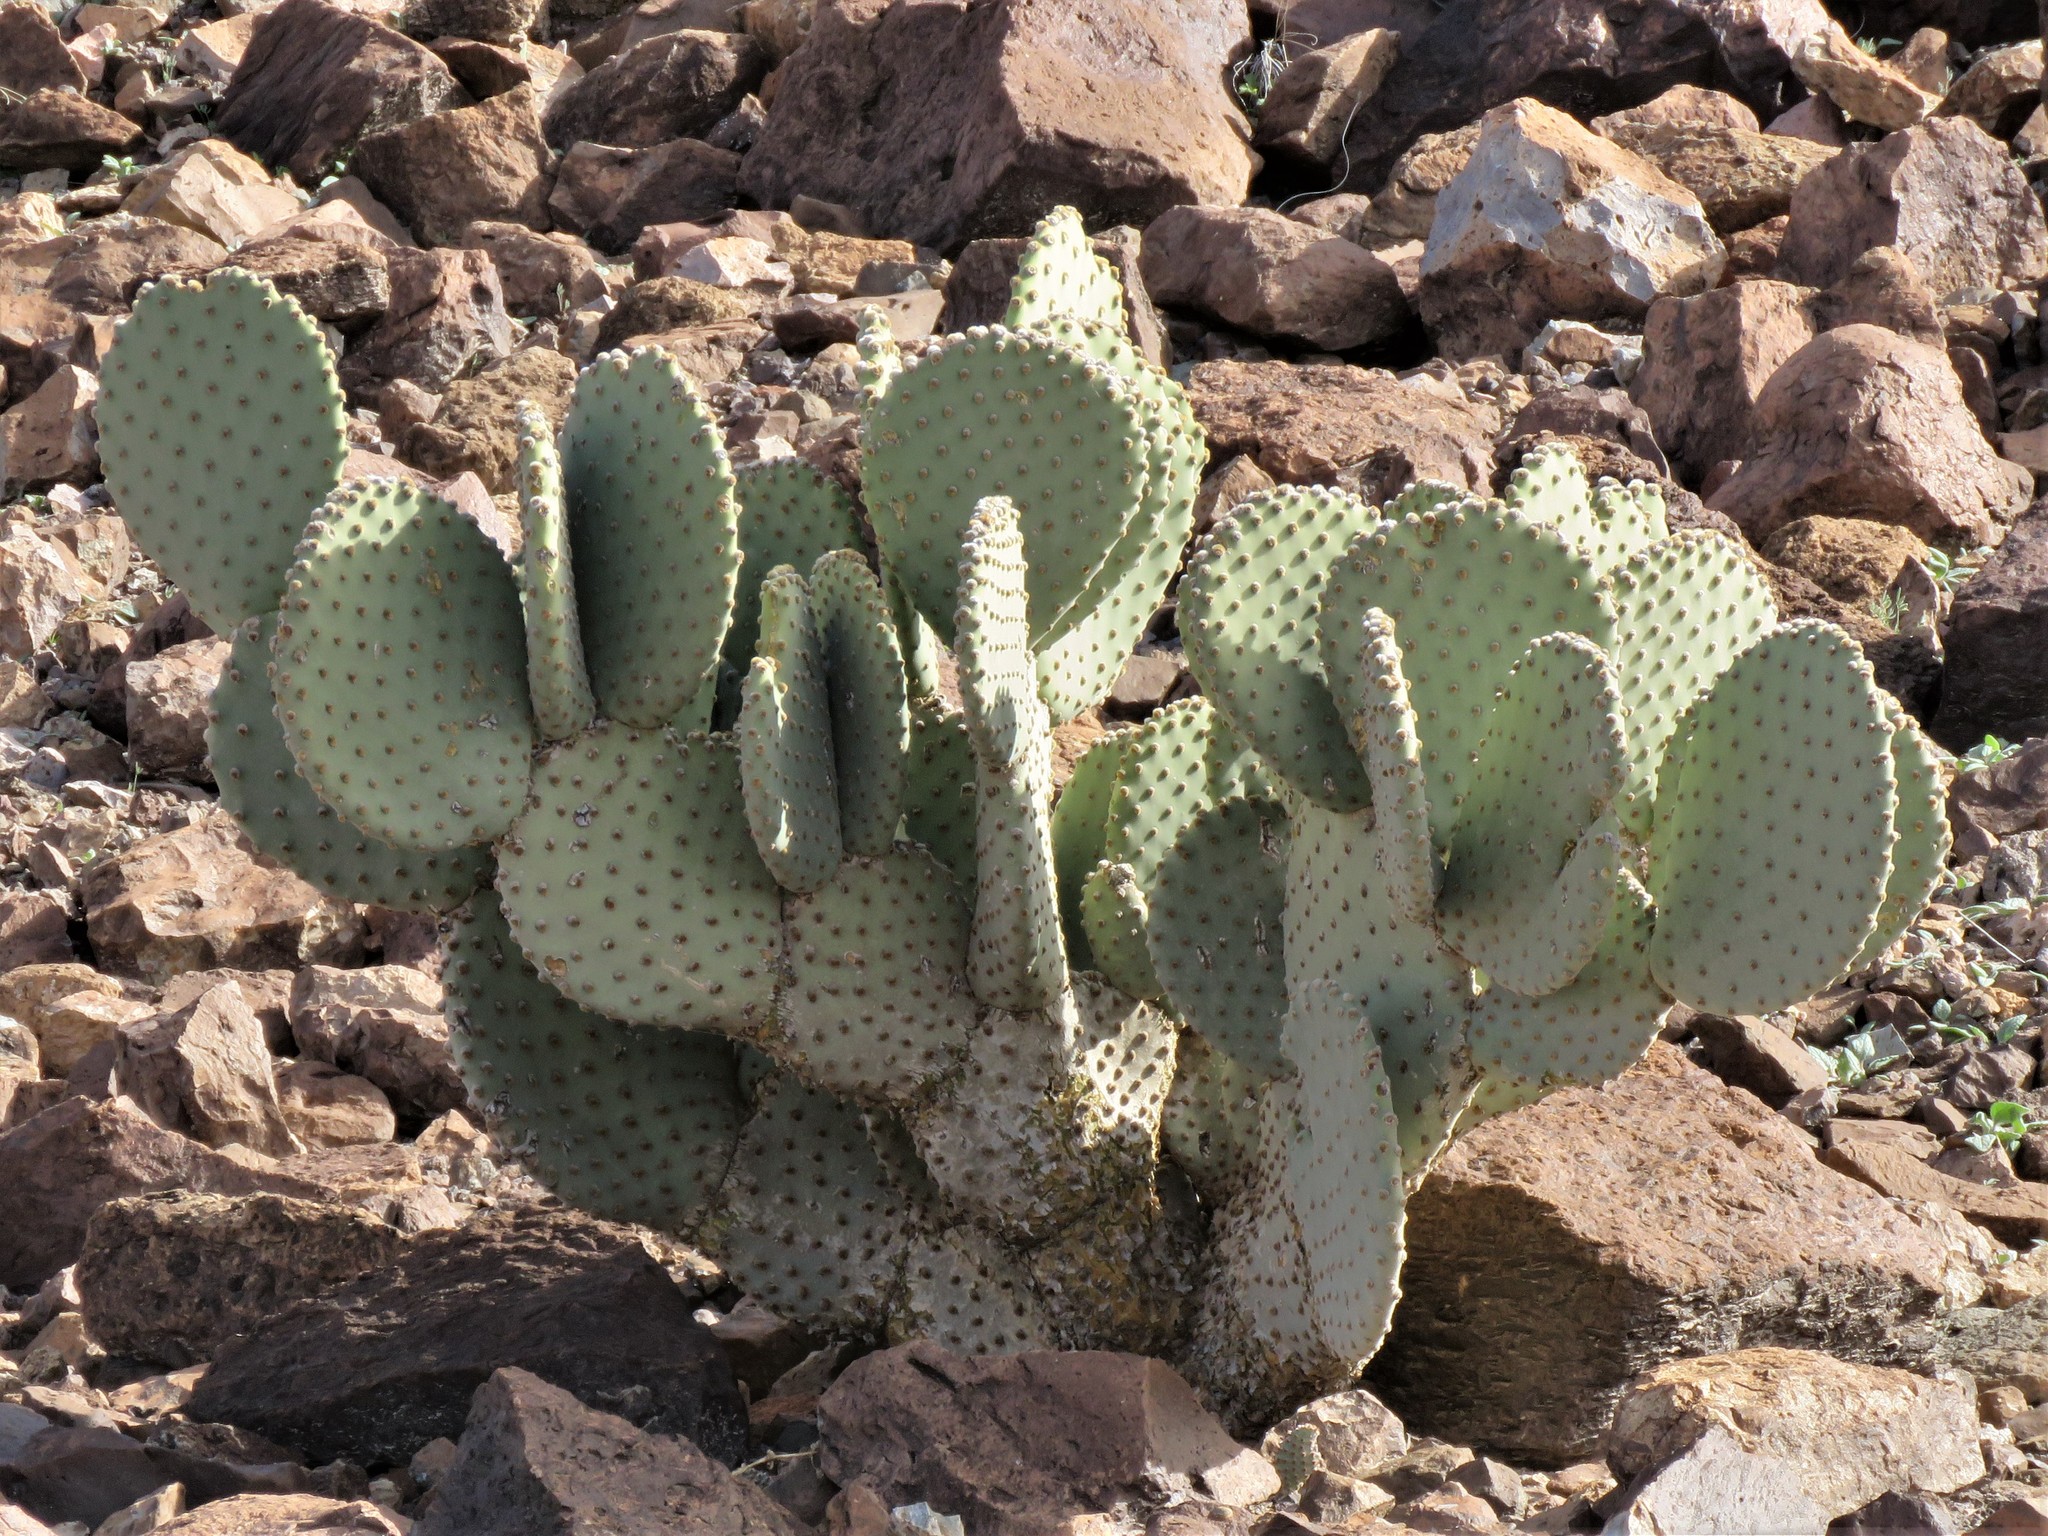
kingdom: Plantae
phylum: Tracheophyta
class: Magnoliopsida
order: Caryophyllales
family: Cactaceae
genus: Opuntia
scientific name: Opuntia rufida
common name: Blind pricklypear
